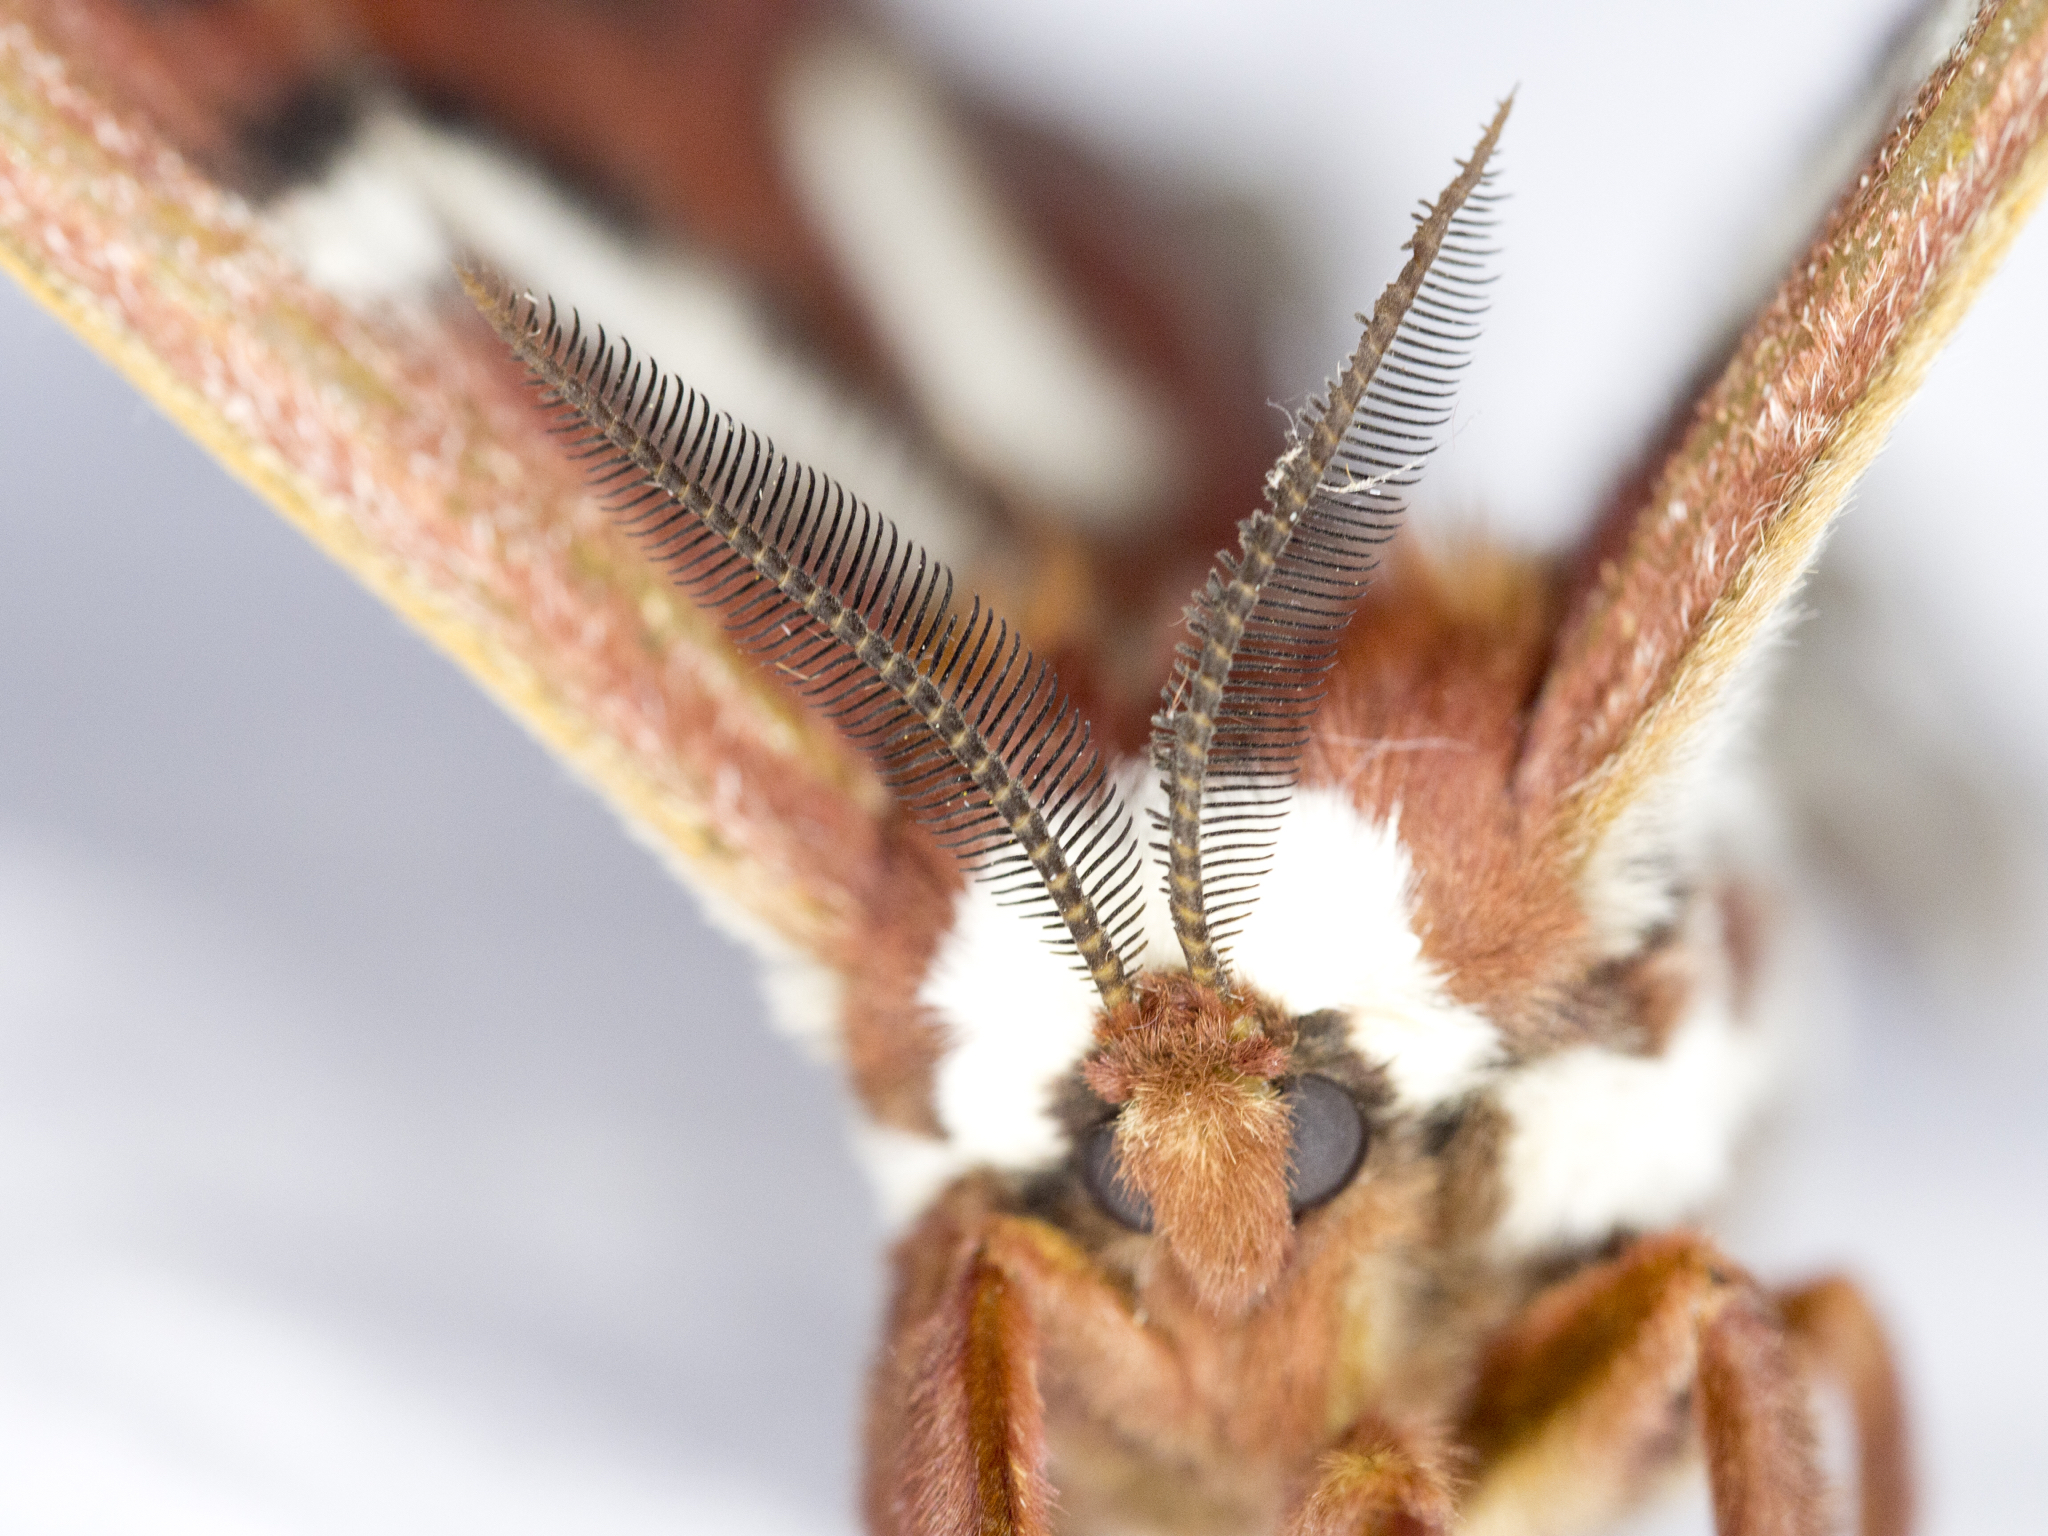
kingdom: Animalia
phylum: Arthropoda
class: Insecta
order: Lepidoptera
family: Saturniidae
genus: Hyalophora
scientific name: Hyalophora gloveri
